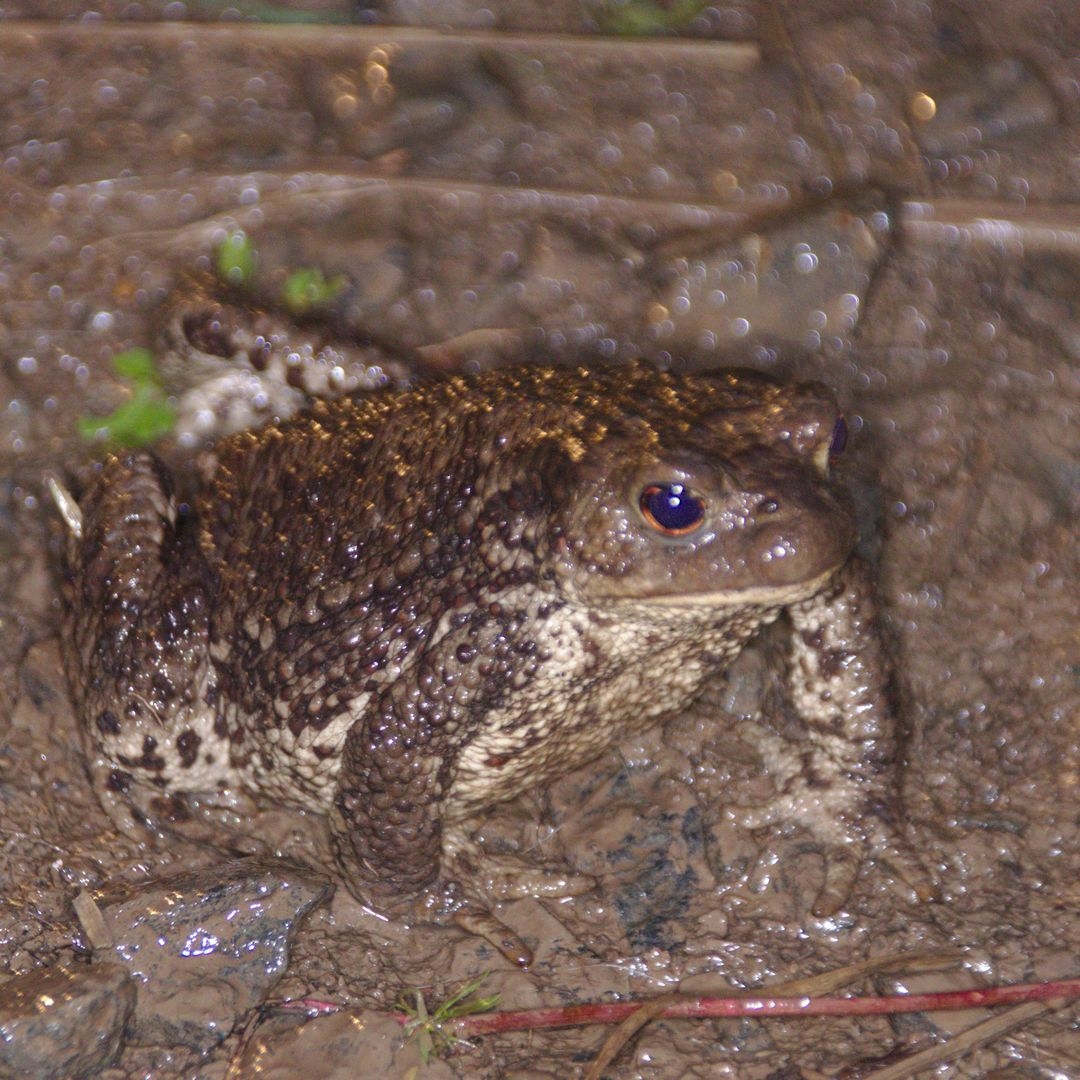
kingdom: Animalia
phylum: Chordata
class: Amphibia
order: Anura
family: Bufonidae
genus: Bufo
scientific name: Bufo bufo
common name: Common toad
